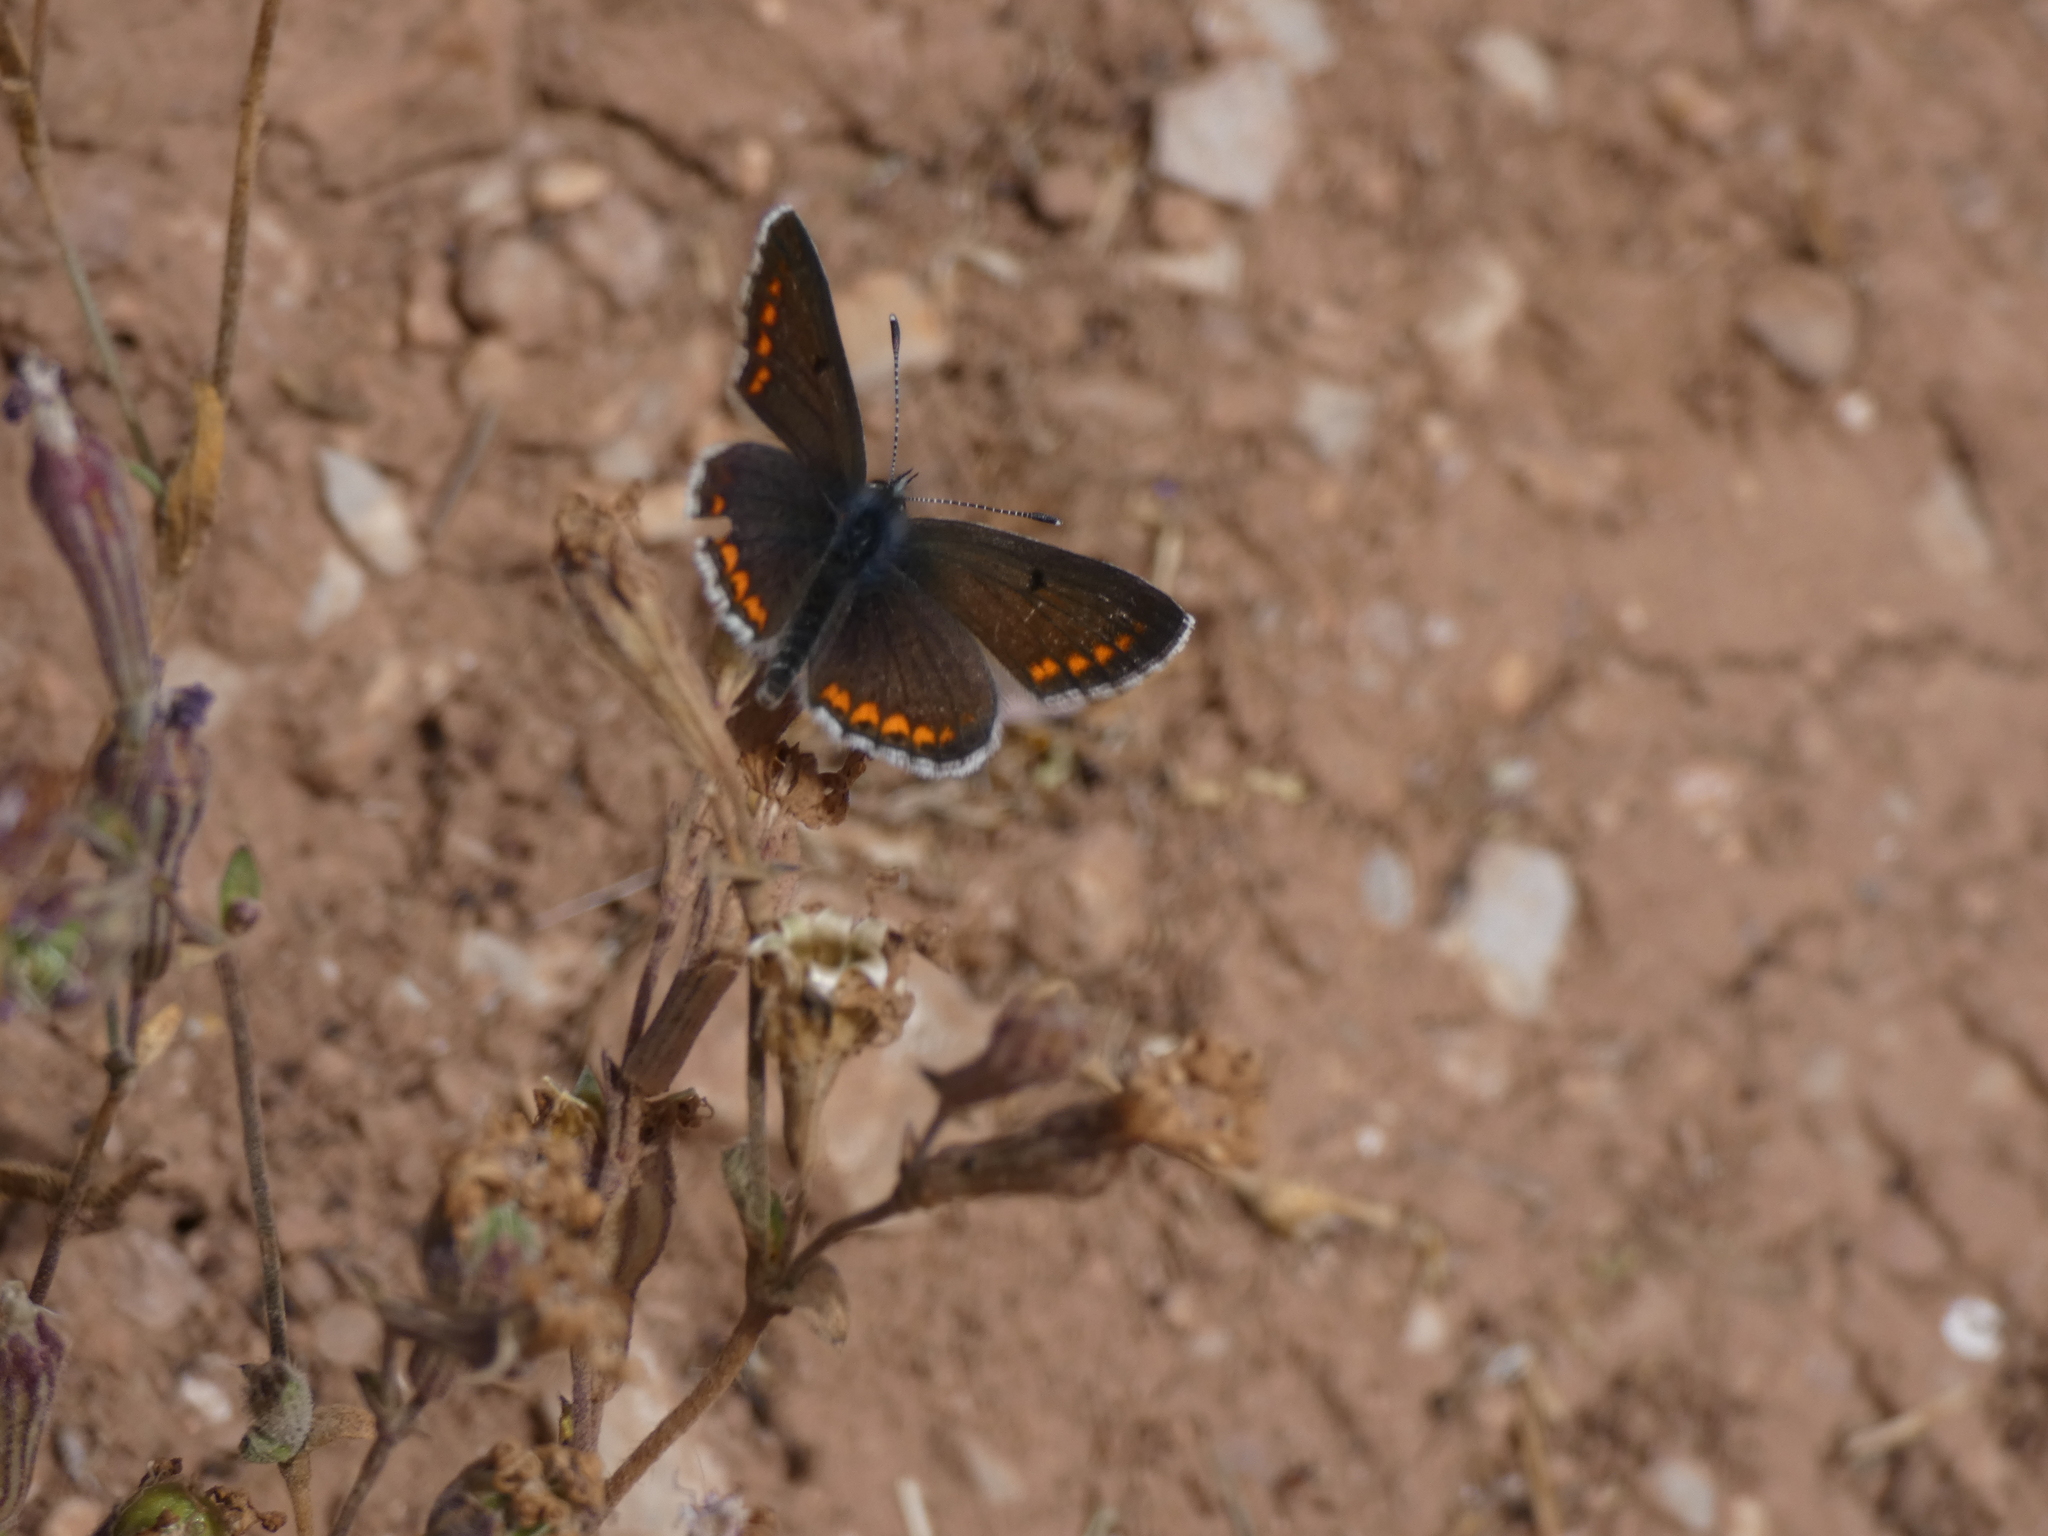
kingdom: Animalia
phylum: Arthropoda
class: Insecta
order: Lepidoptera
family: Lycaenidae
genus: Aricia
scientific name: Aricia agestis
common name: Brown argus
